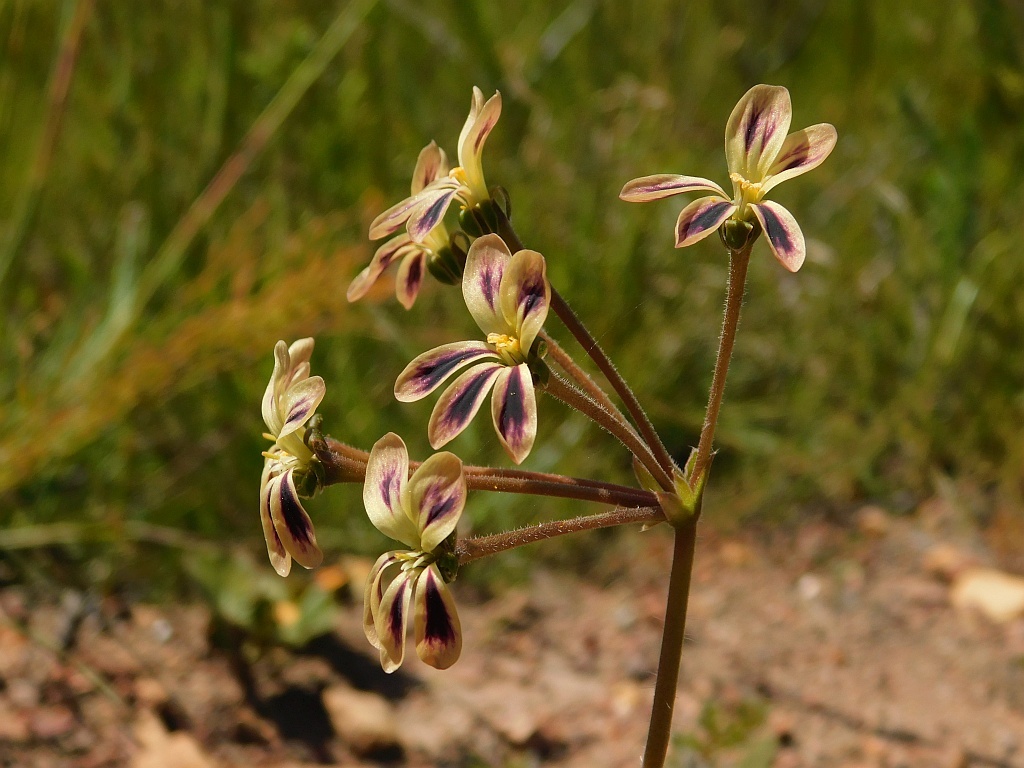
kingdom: Plantae
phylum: Tracheophyta
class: Magnoliopsida
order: Geraniales
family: Geraniaceae
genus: Pelargonium
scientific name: Pelargonium triste
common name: Night-scent pelargonium
